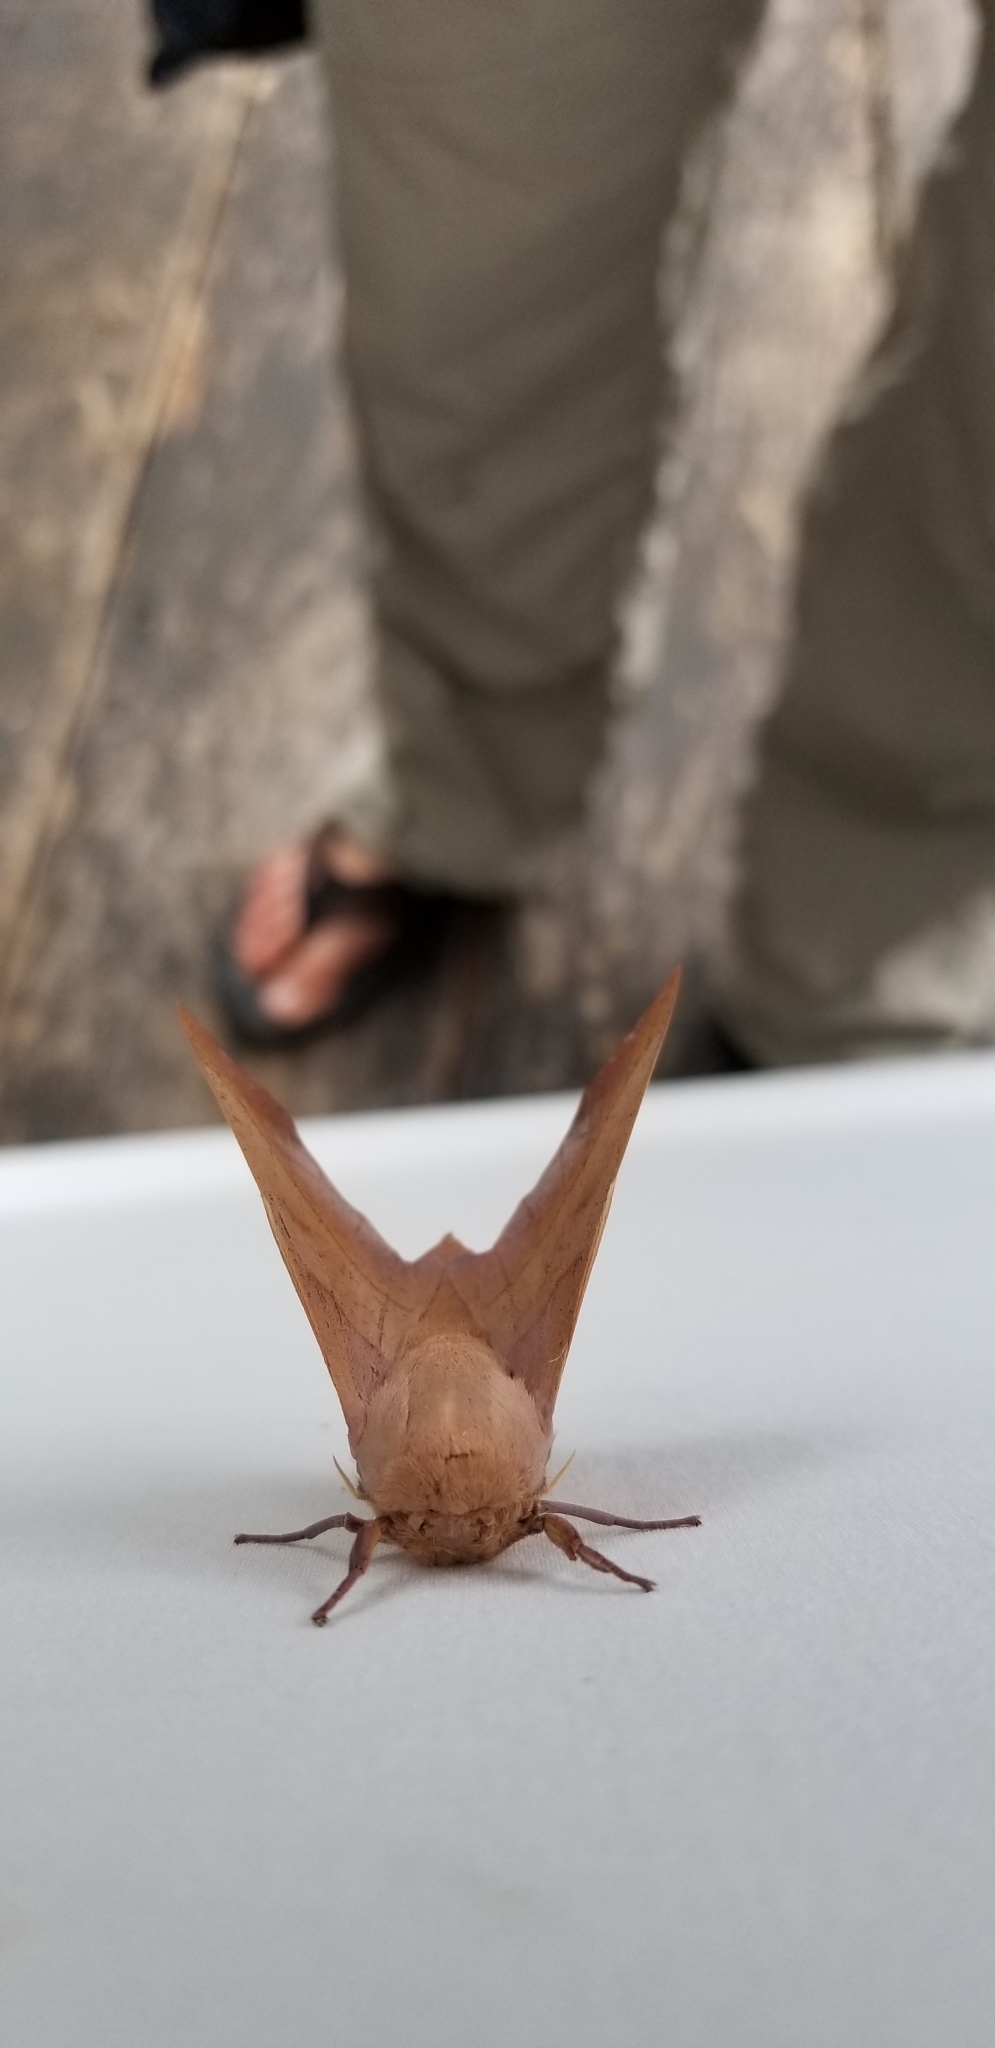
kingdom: Animalia
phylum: Arthropoda
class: Insecta
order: Lepidoptera
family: Saturniidae
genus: Syssphinx
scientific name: Syssphinx molina
